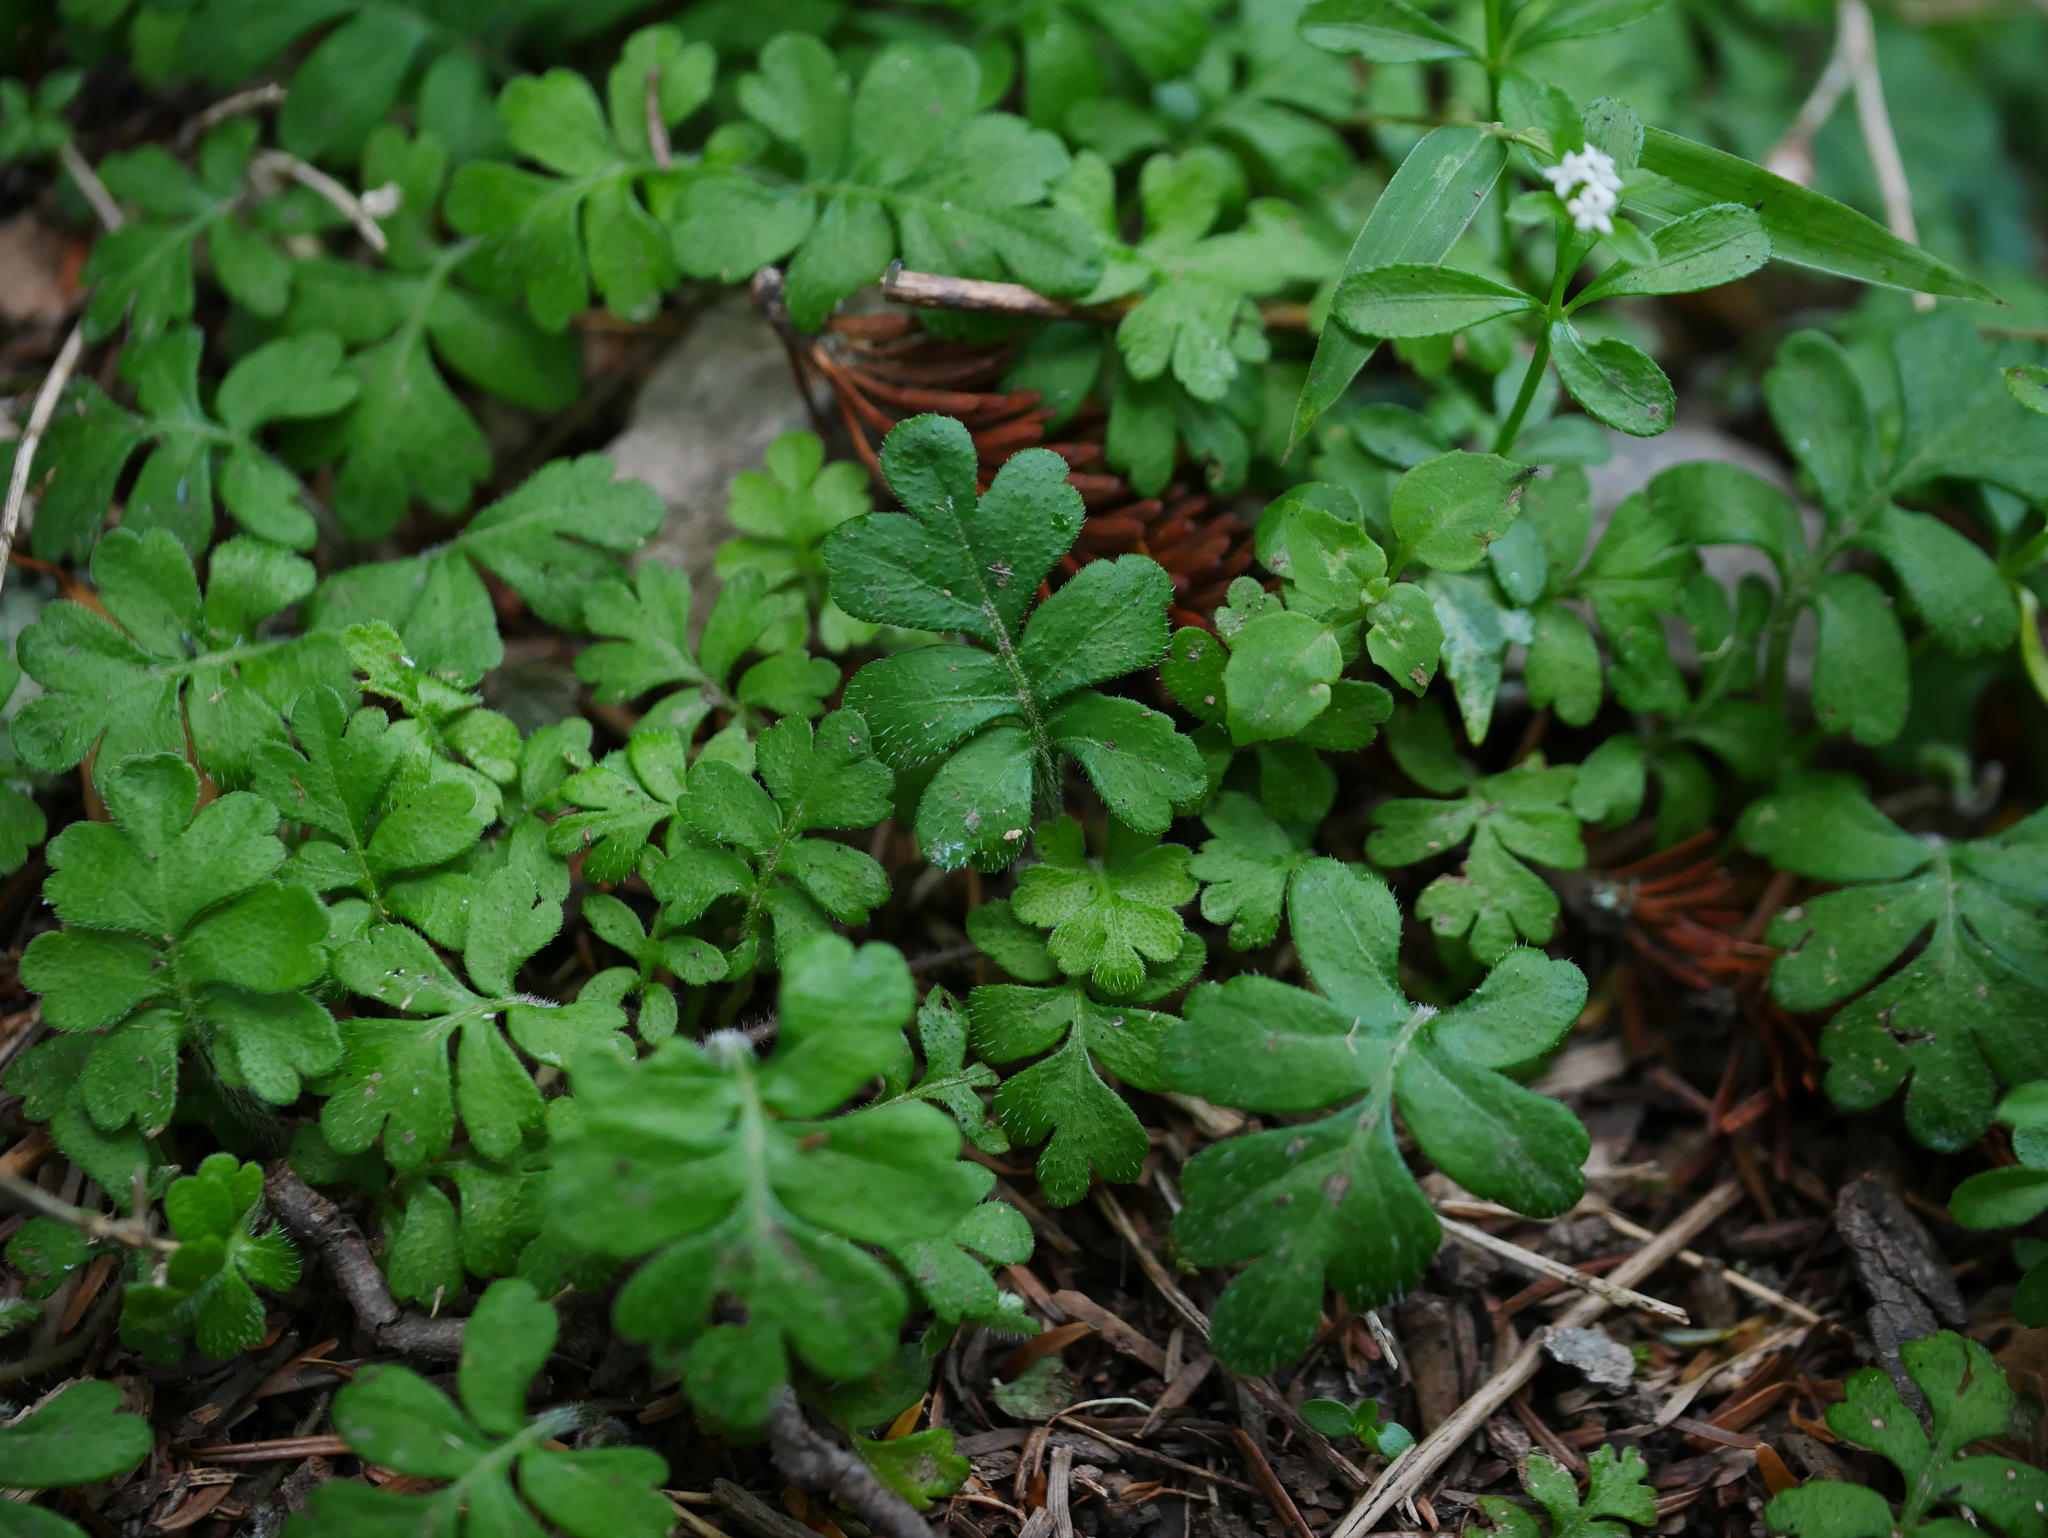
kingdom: Plantae
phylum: Tracheophyta
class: Magnoliopsida
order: Lamiales
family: Plantaginaceae
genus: Ellisiophyllum
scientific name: Ellisiophyllum pinnatum
